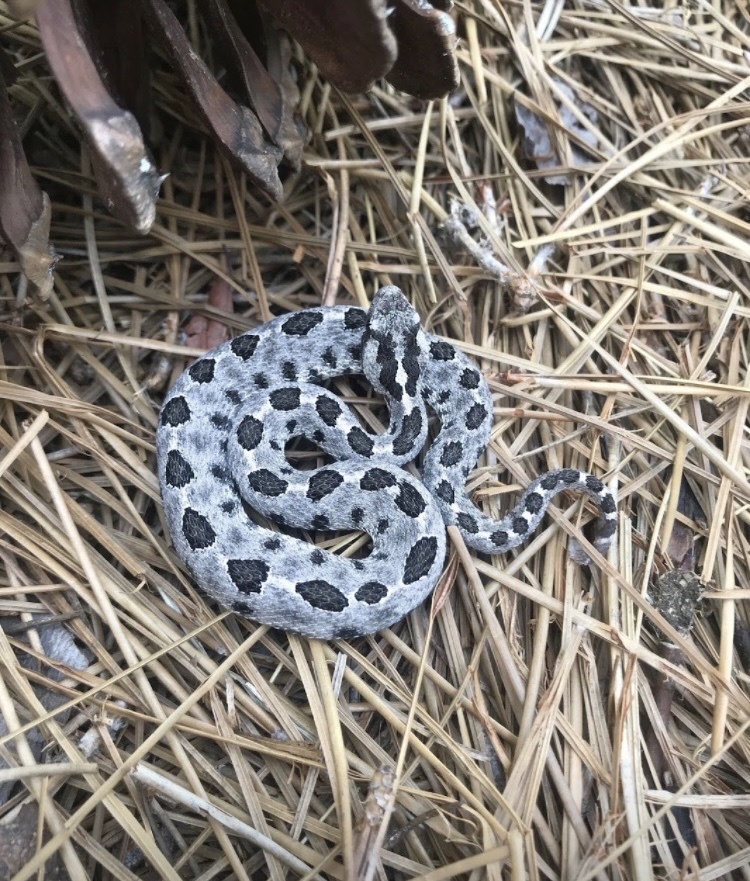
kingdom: Animalia
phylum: Chordata
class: Squamata
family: Viperidae
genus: Sistrurus
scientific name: Sistrurus miliarius
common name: Pygmy rattlesnake
